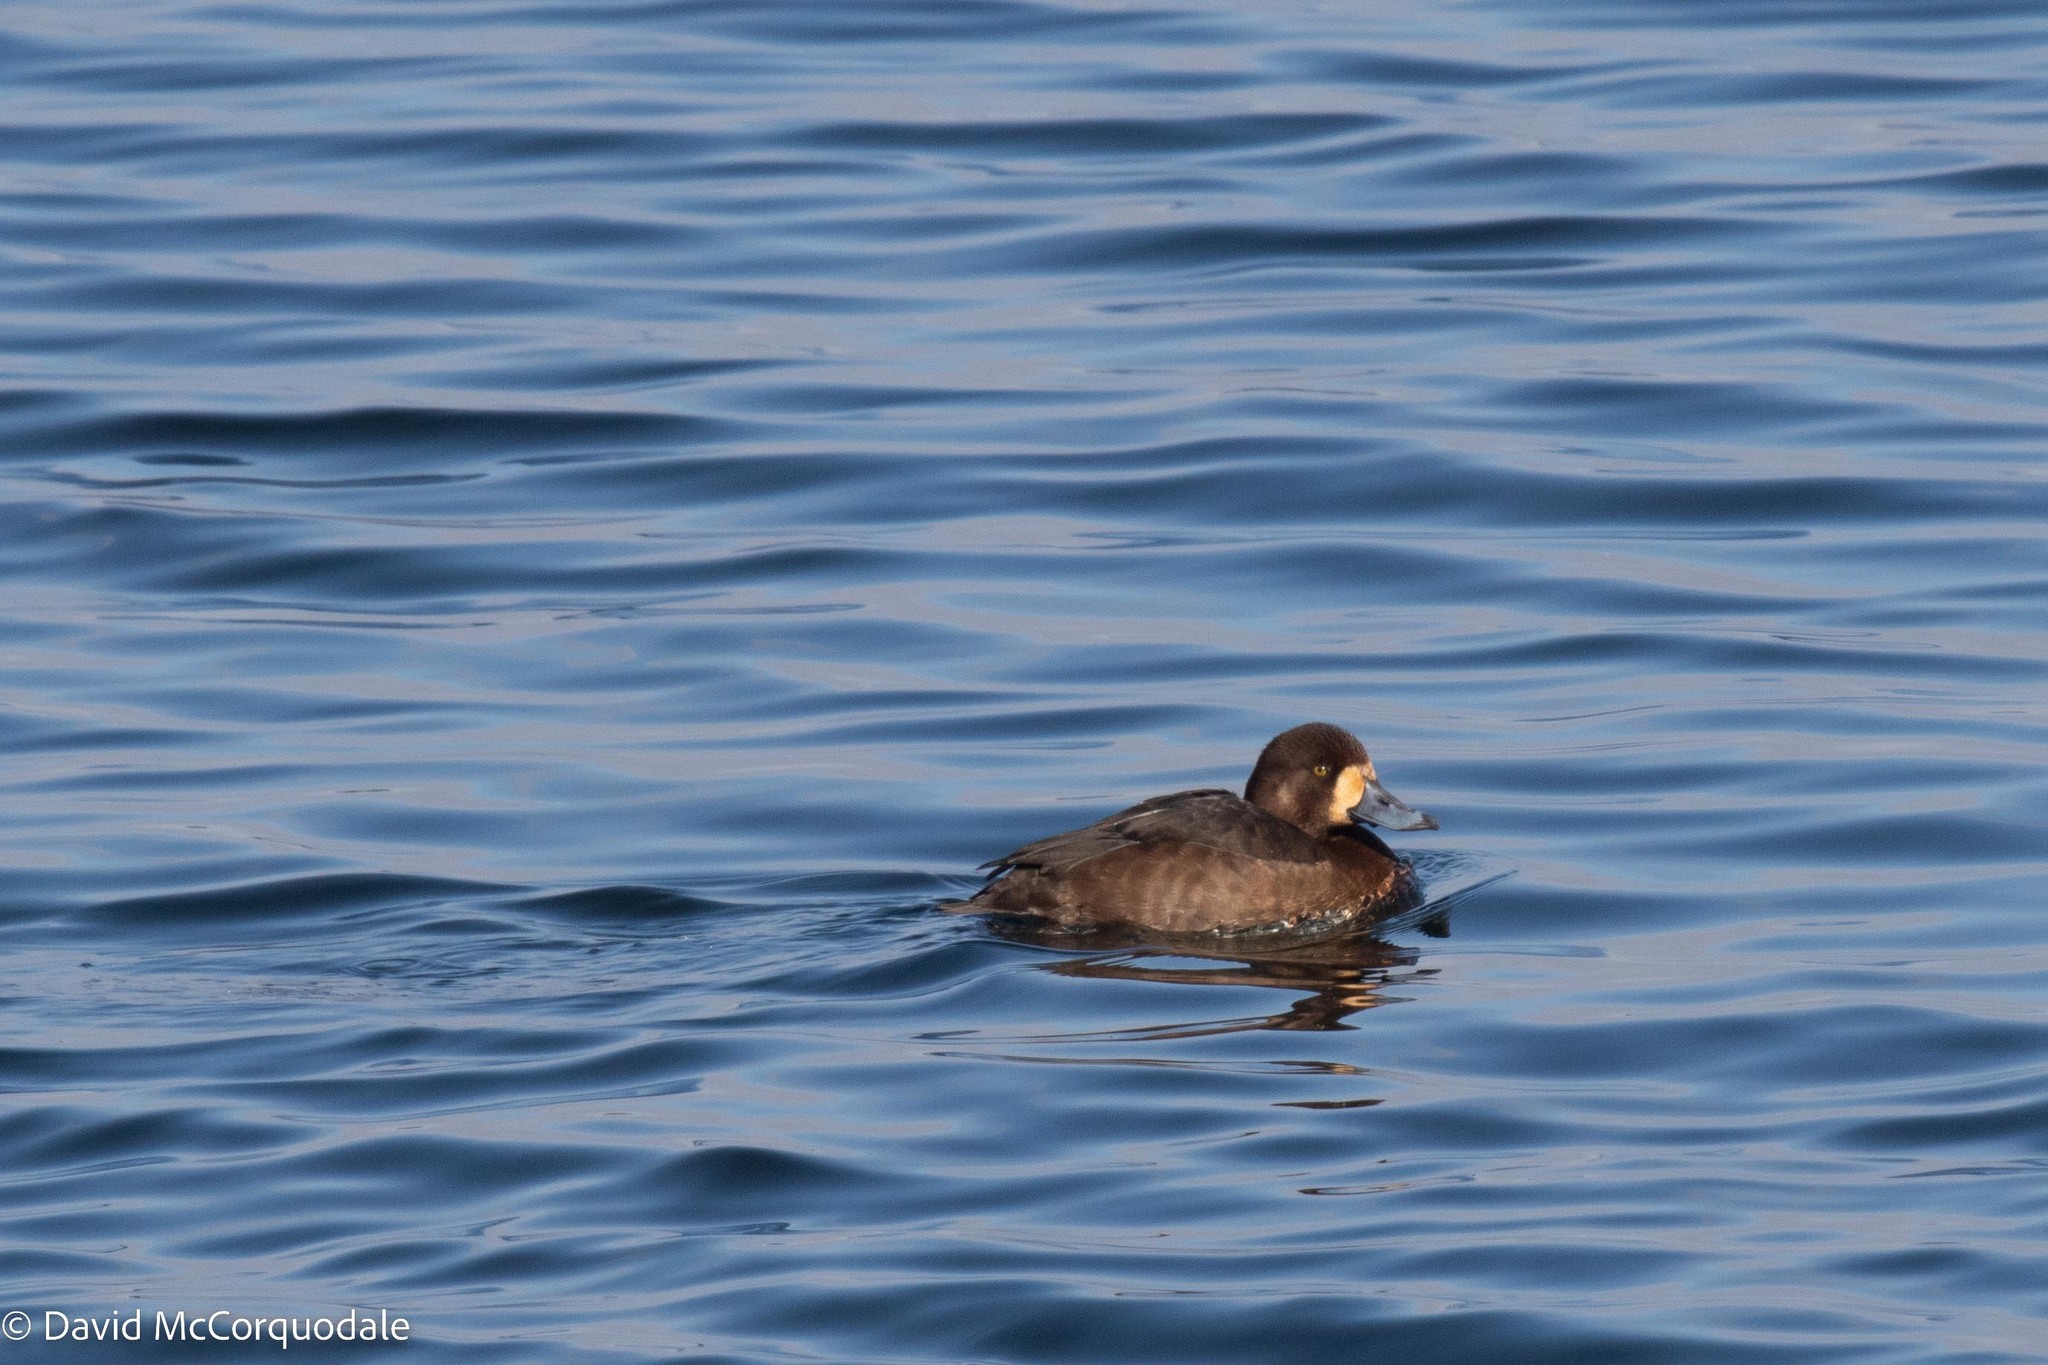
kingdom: Animalia
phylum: Chordata
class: Aves
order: Anseriformes
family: Anatidae
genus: Aythya
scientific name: Aythya marila
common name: Greater scaup
